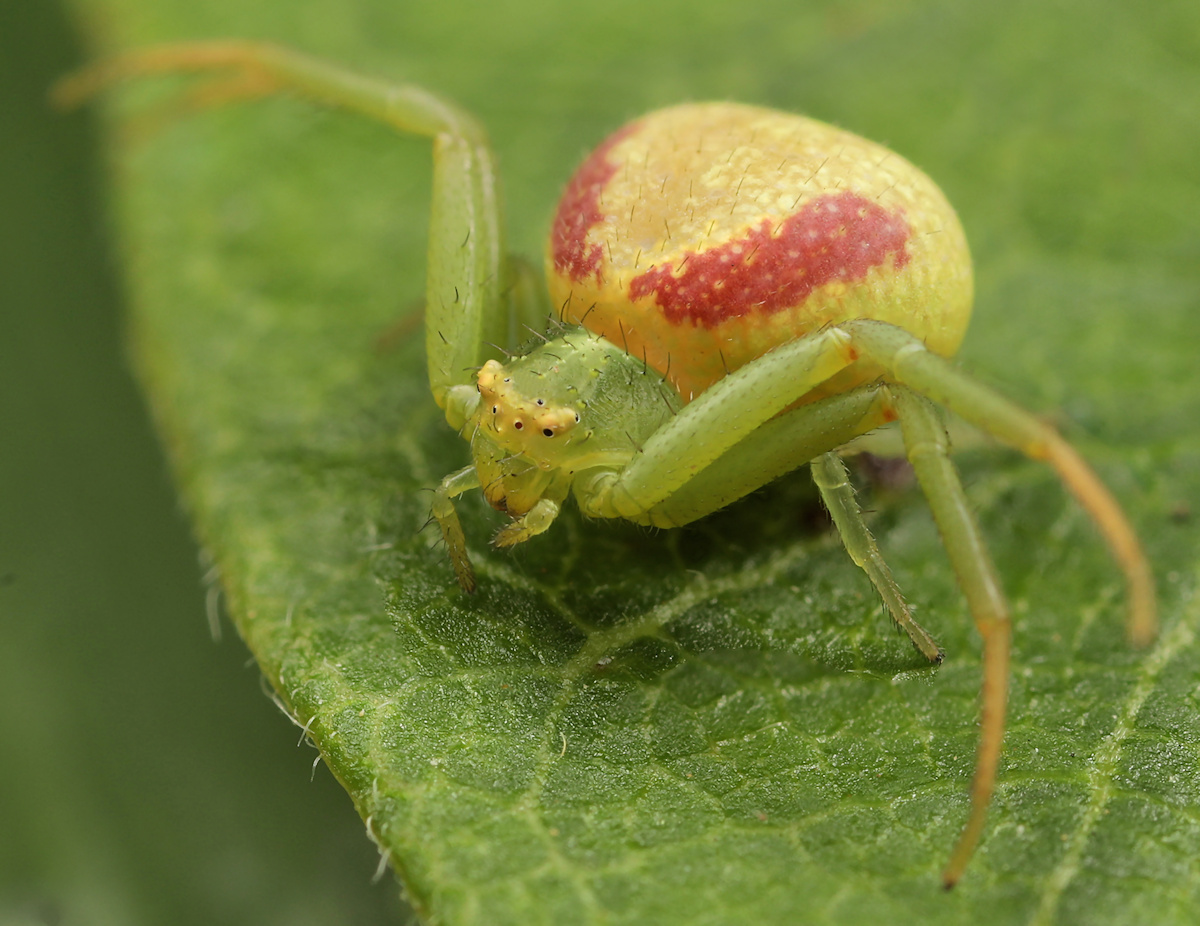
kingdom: Animalia
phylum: Arthropoda
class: Arachnida
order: Araneae
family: Thomisidae
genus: Misumenops
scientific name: Misumenops rubrodecoratus
